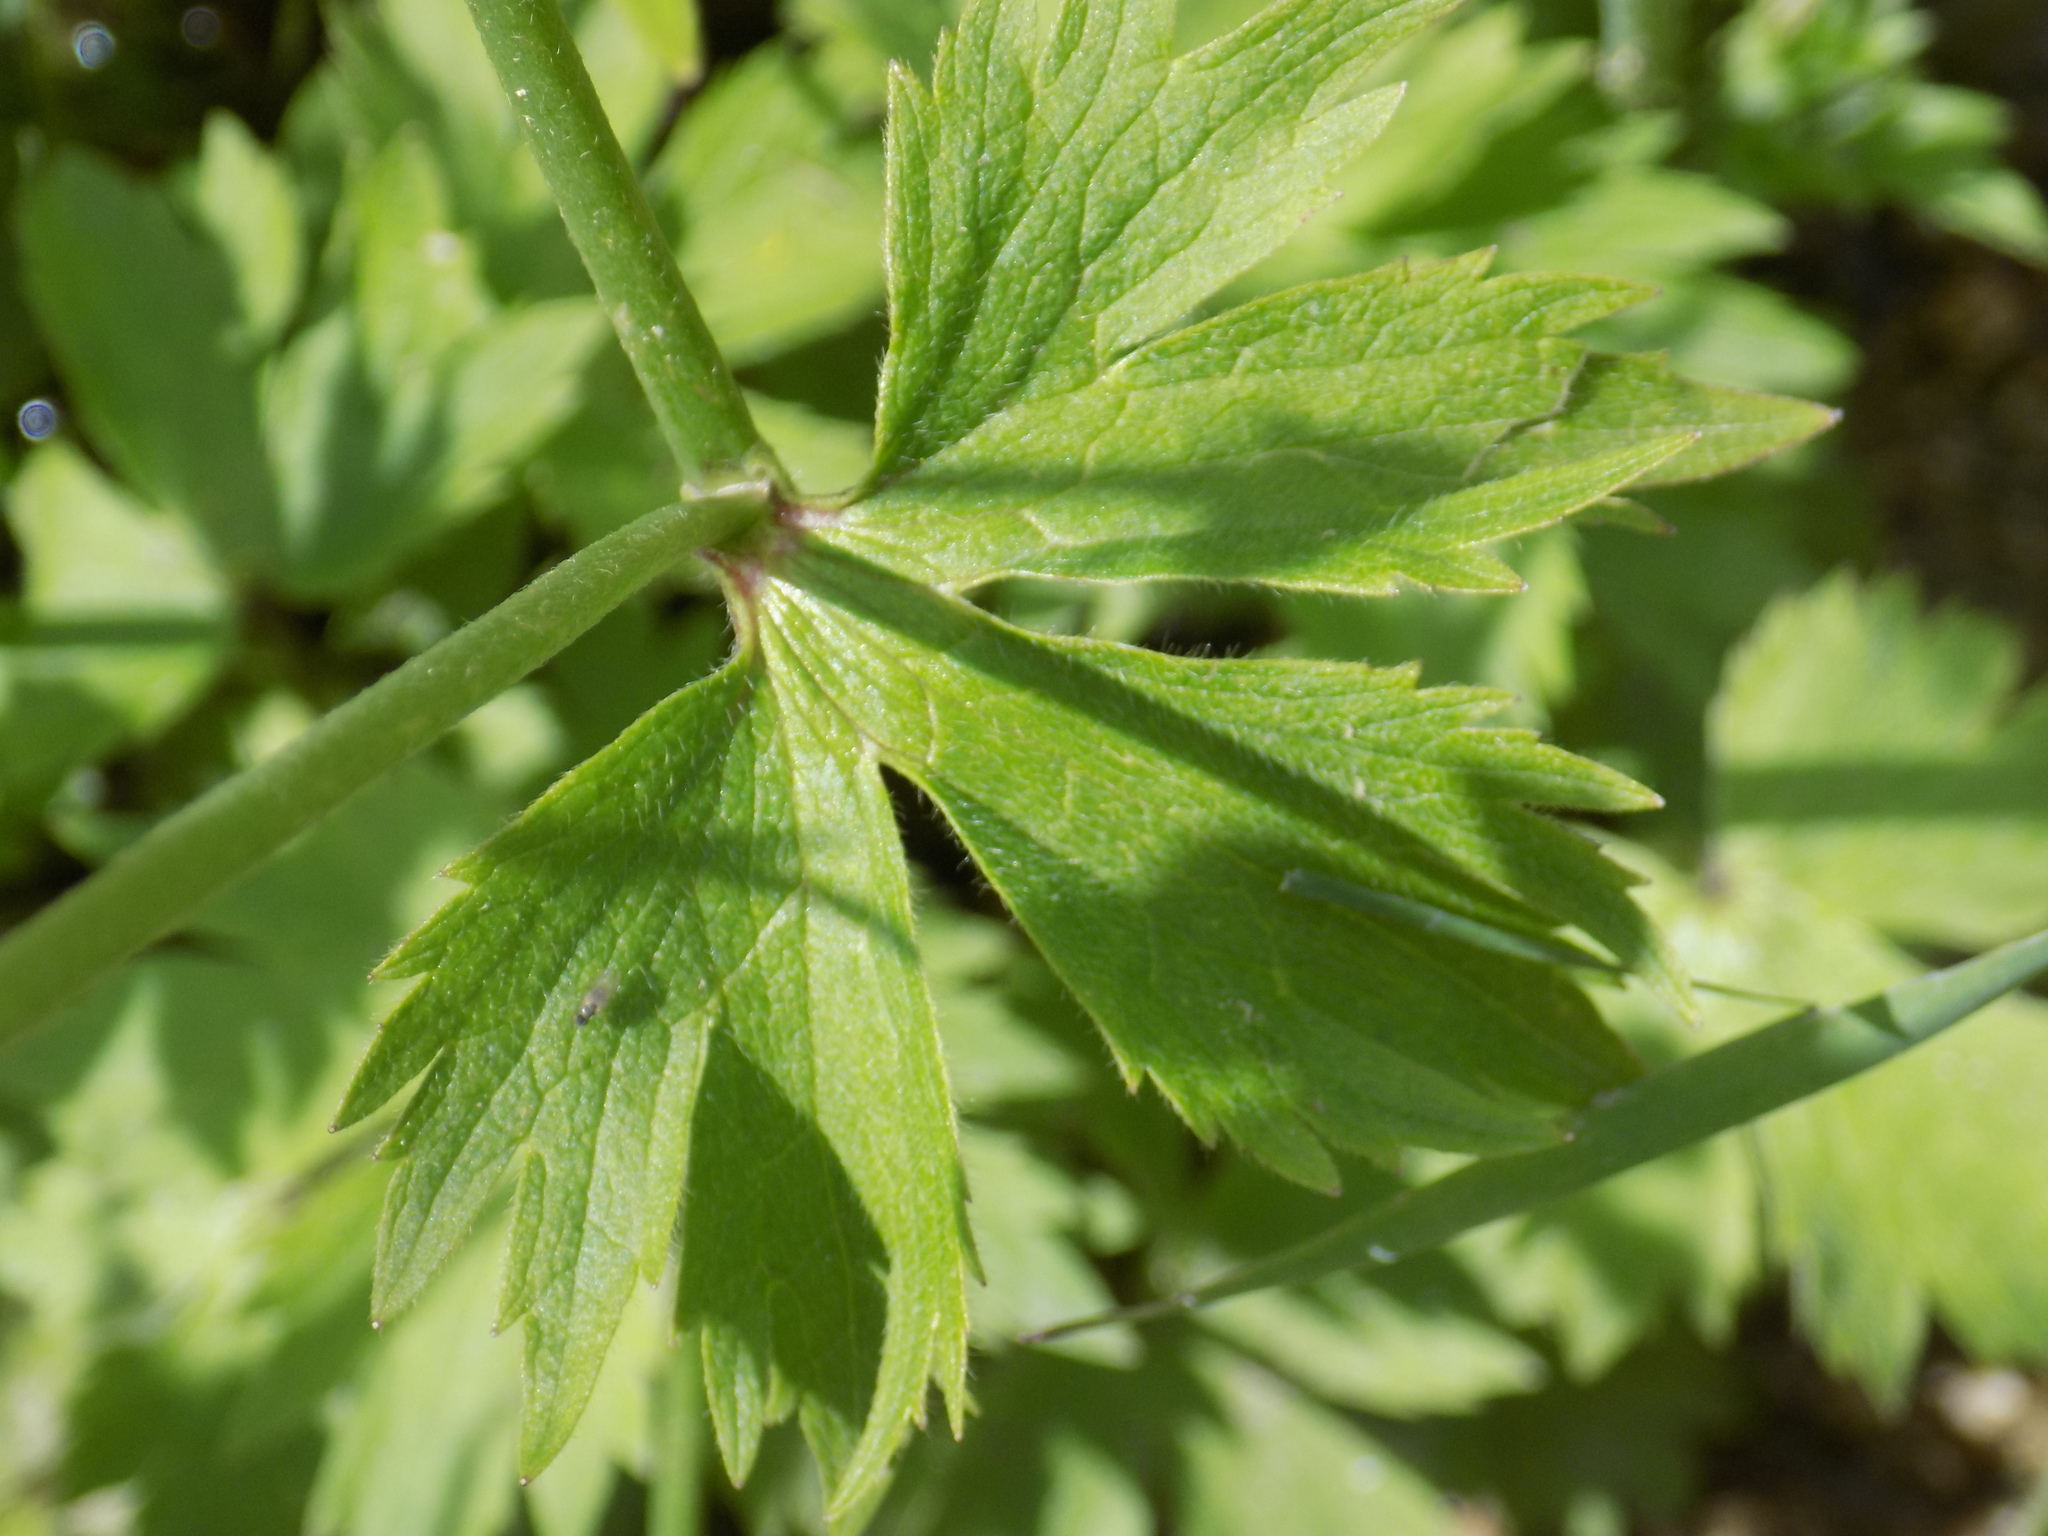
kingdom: Plantae
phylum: Tracheophyta
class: Magnoliopsida
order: Ranunculales
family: Ranunculaceae
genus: Ranunculus
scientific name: Ranunculus propinquus
